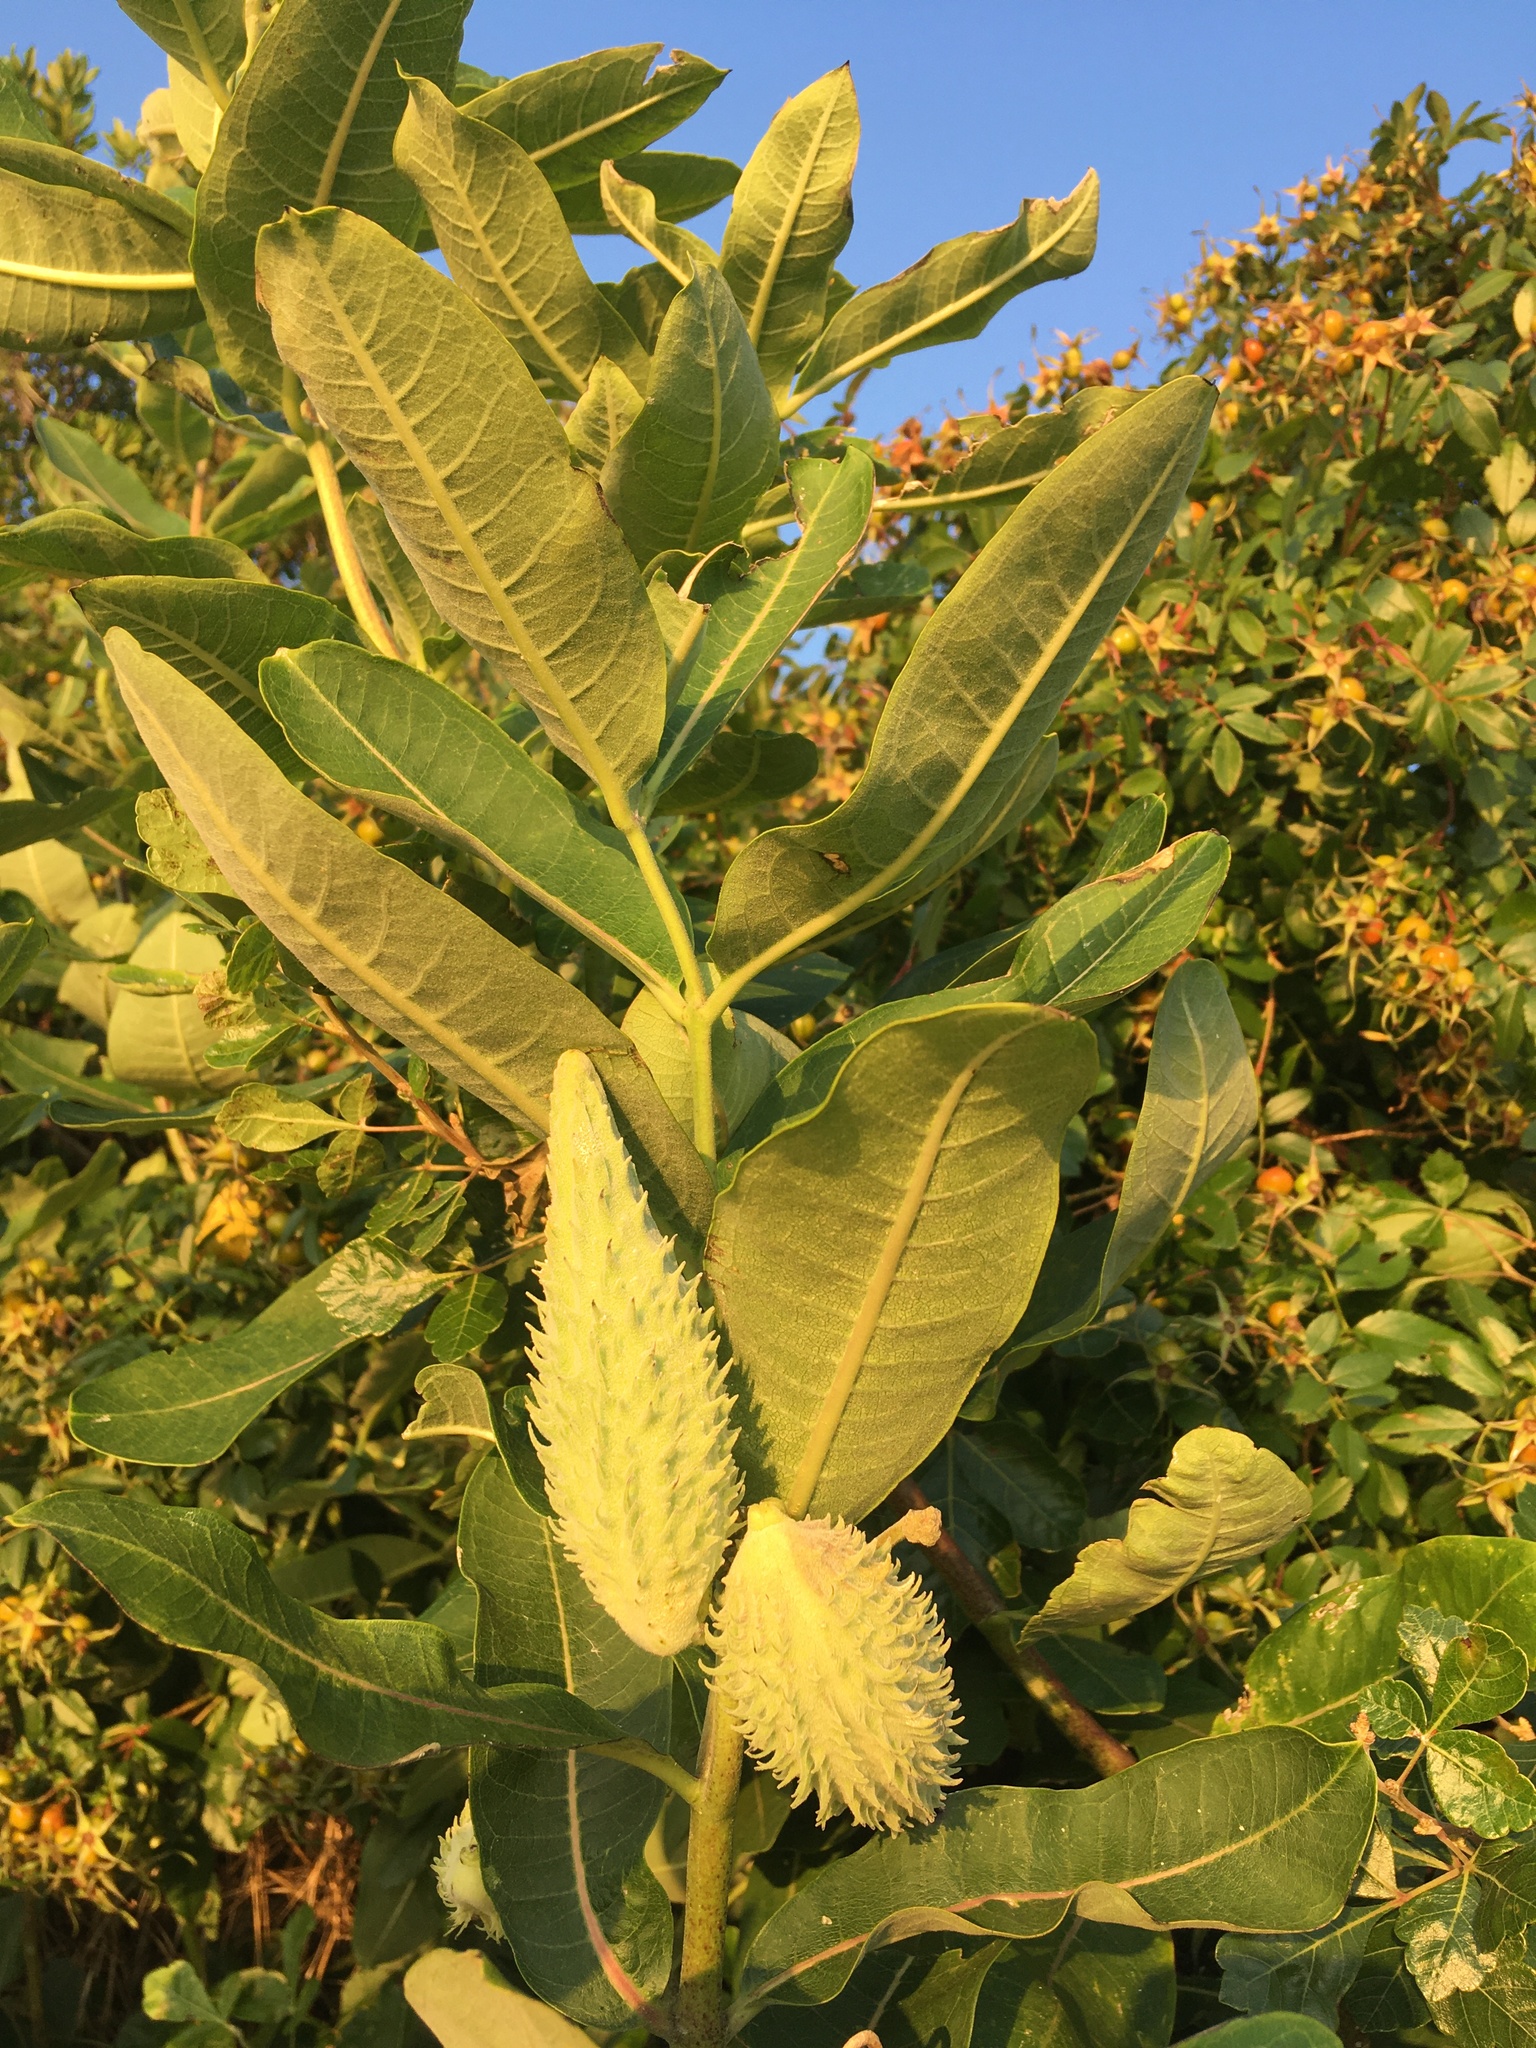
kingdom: Plantae
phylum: Tracheophyta
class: Magnoliopsida
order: Gentianales
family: Apocynaceae
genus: Asclepias
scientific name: Asclepias syriaca
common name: Common milkweed
